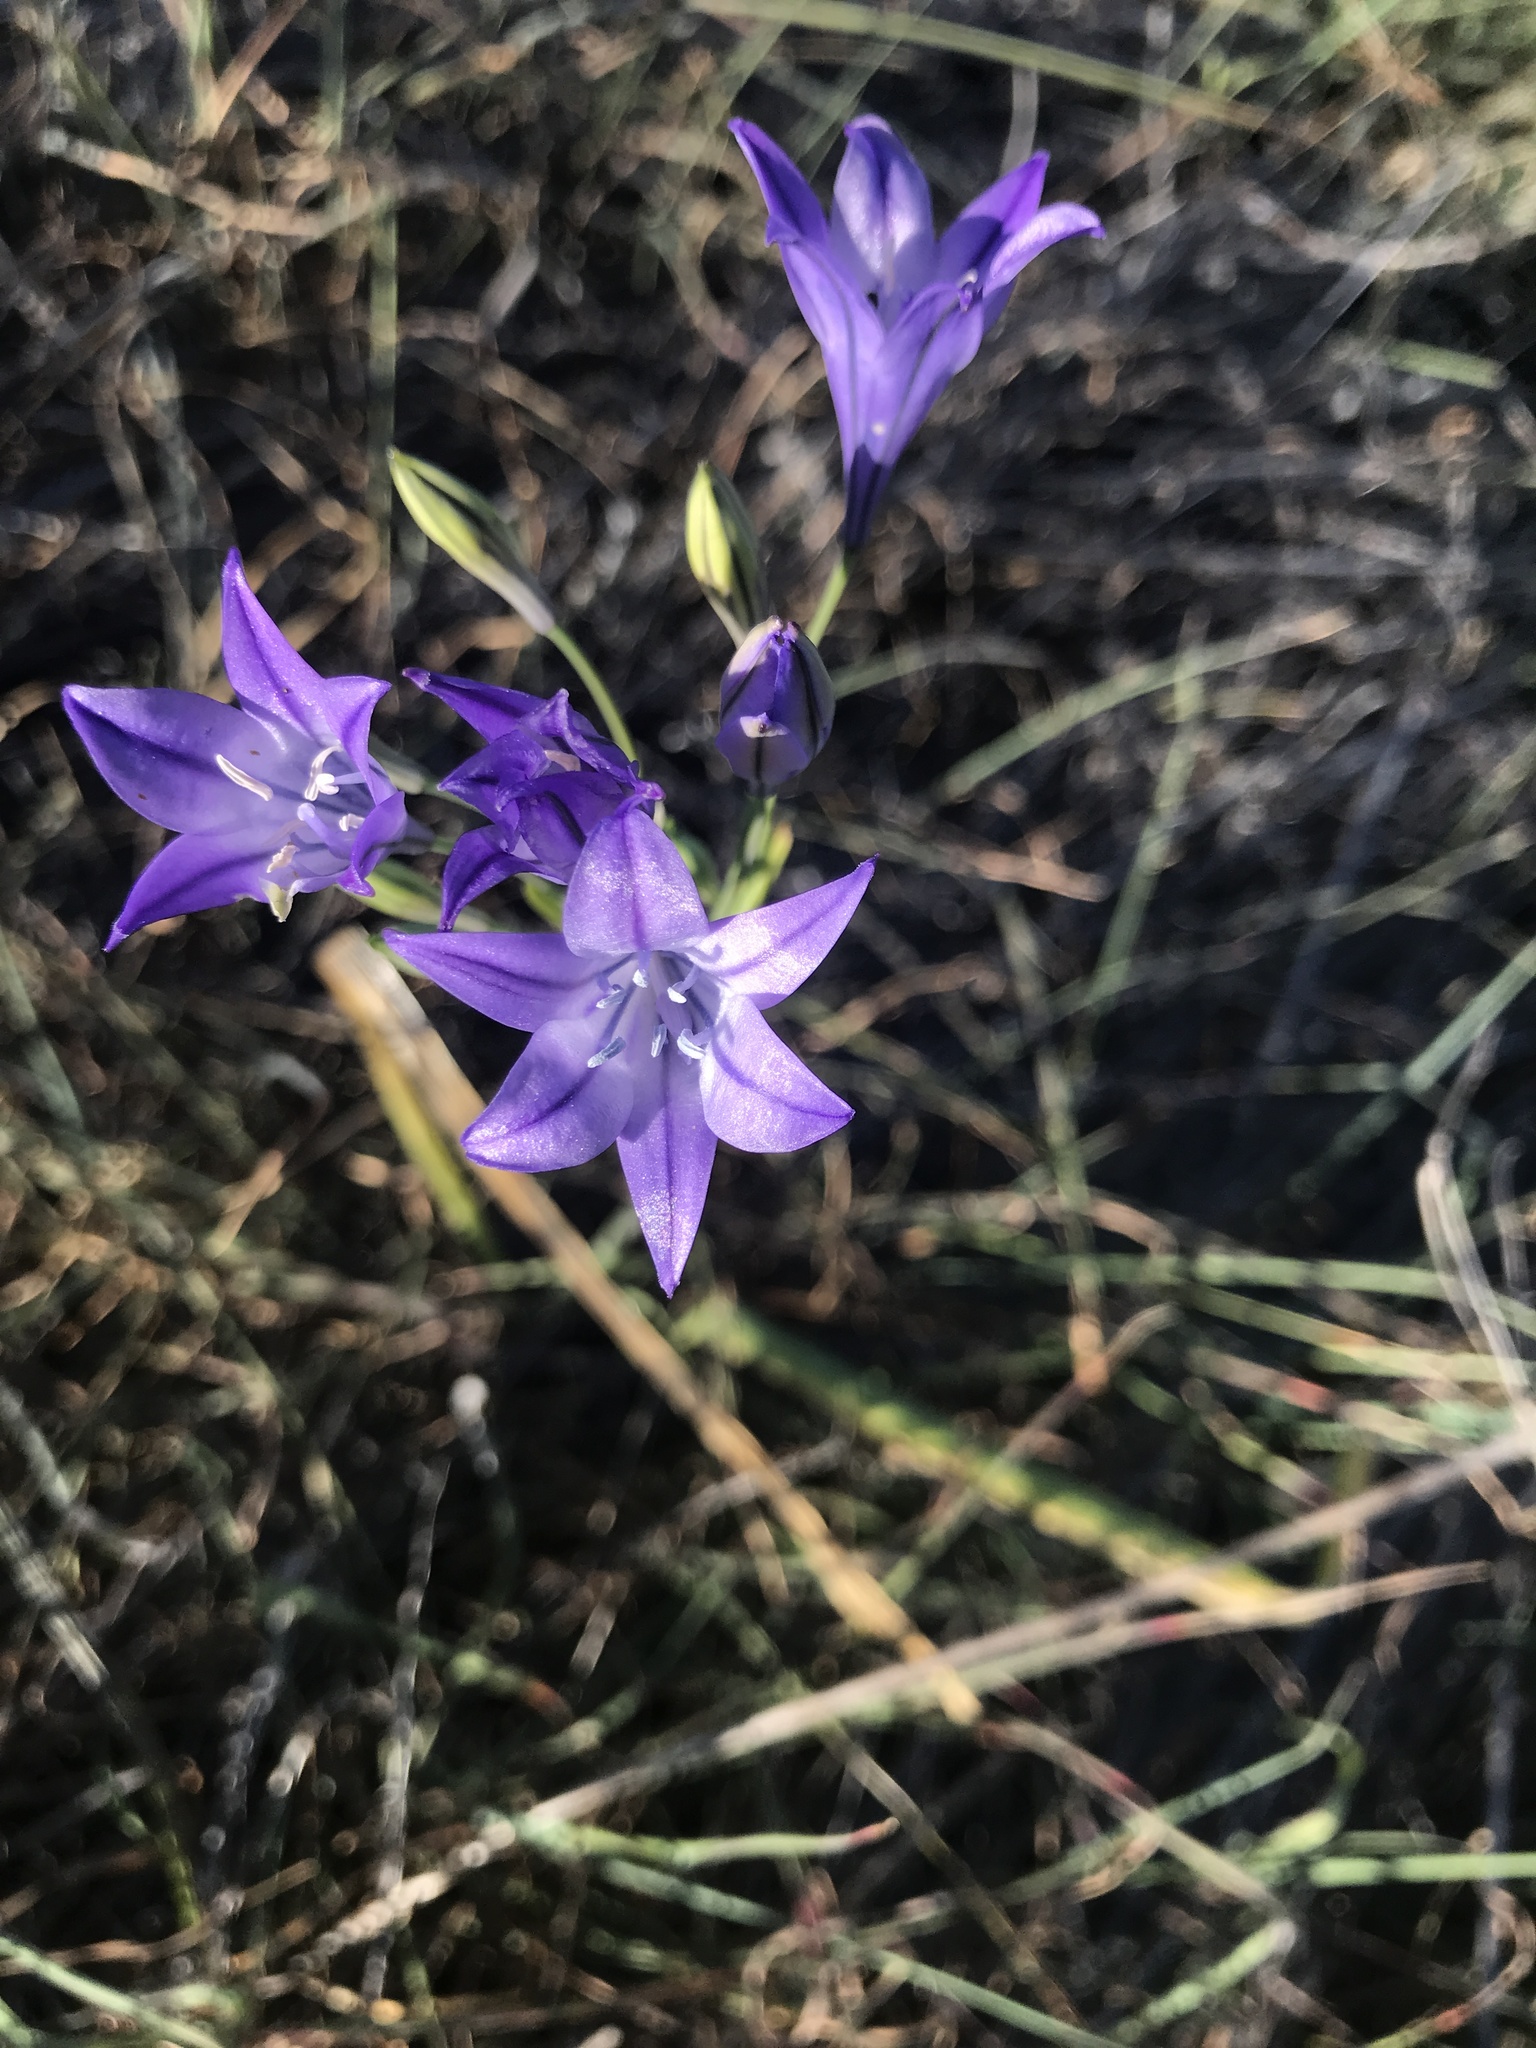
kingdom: Plantae
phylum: Tracheophyta
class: Liliopsida
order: Asparagales
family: Asparagaceae
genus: Triteleia
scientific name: Triteleia laxa
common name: Triplet-lily
